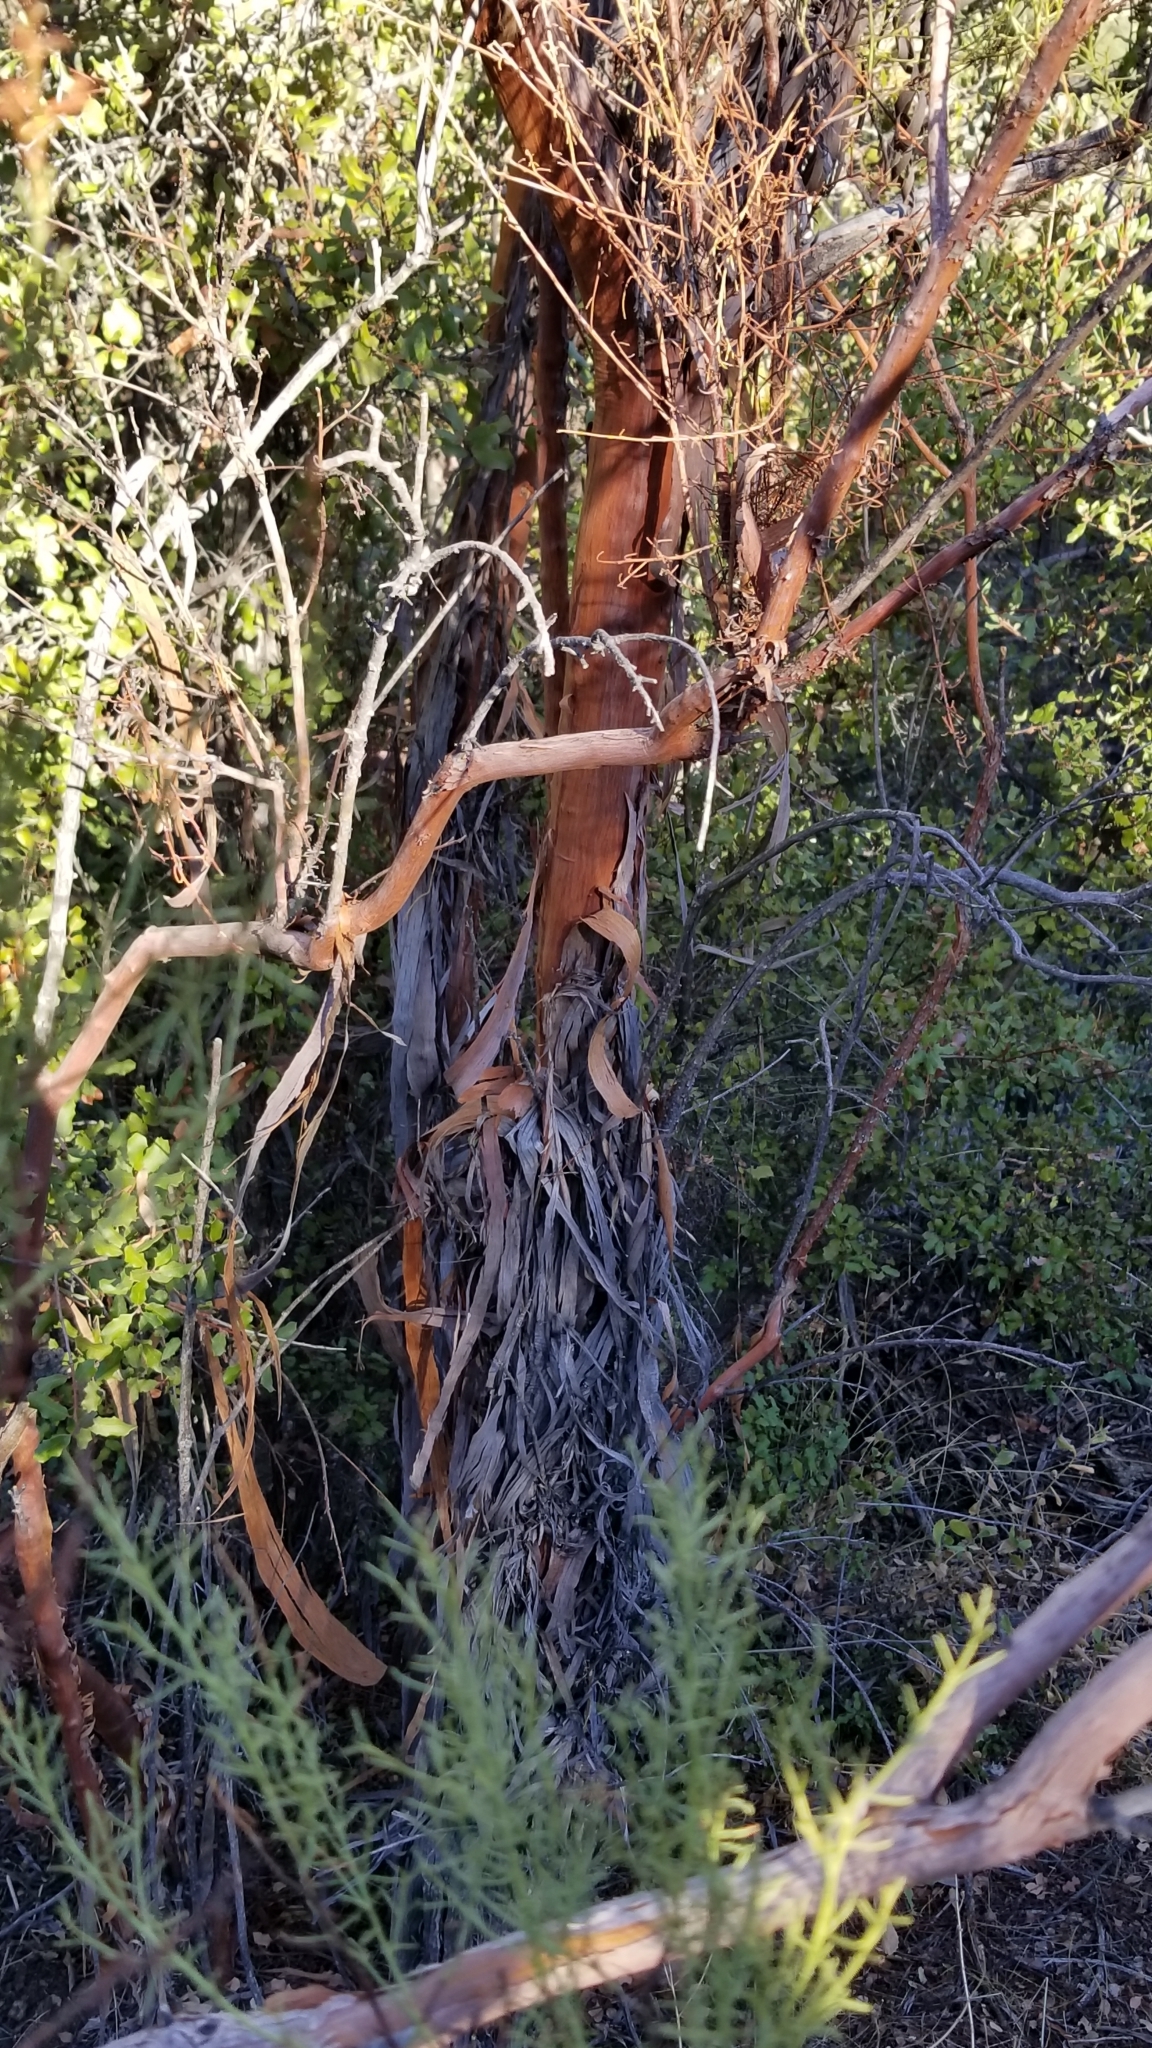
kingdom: Plantae
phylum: Tracheophyta
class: Magnoliopsida
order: Rosales
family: Rosaceae
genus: Adenostoma
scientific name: Adenostoma sparsifolium
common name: Red shank
